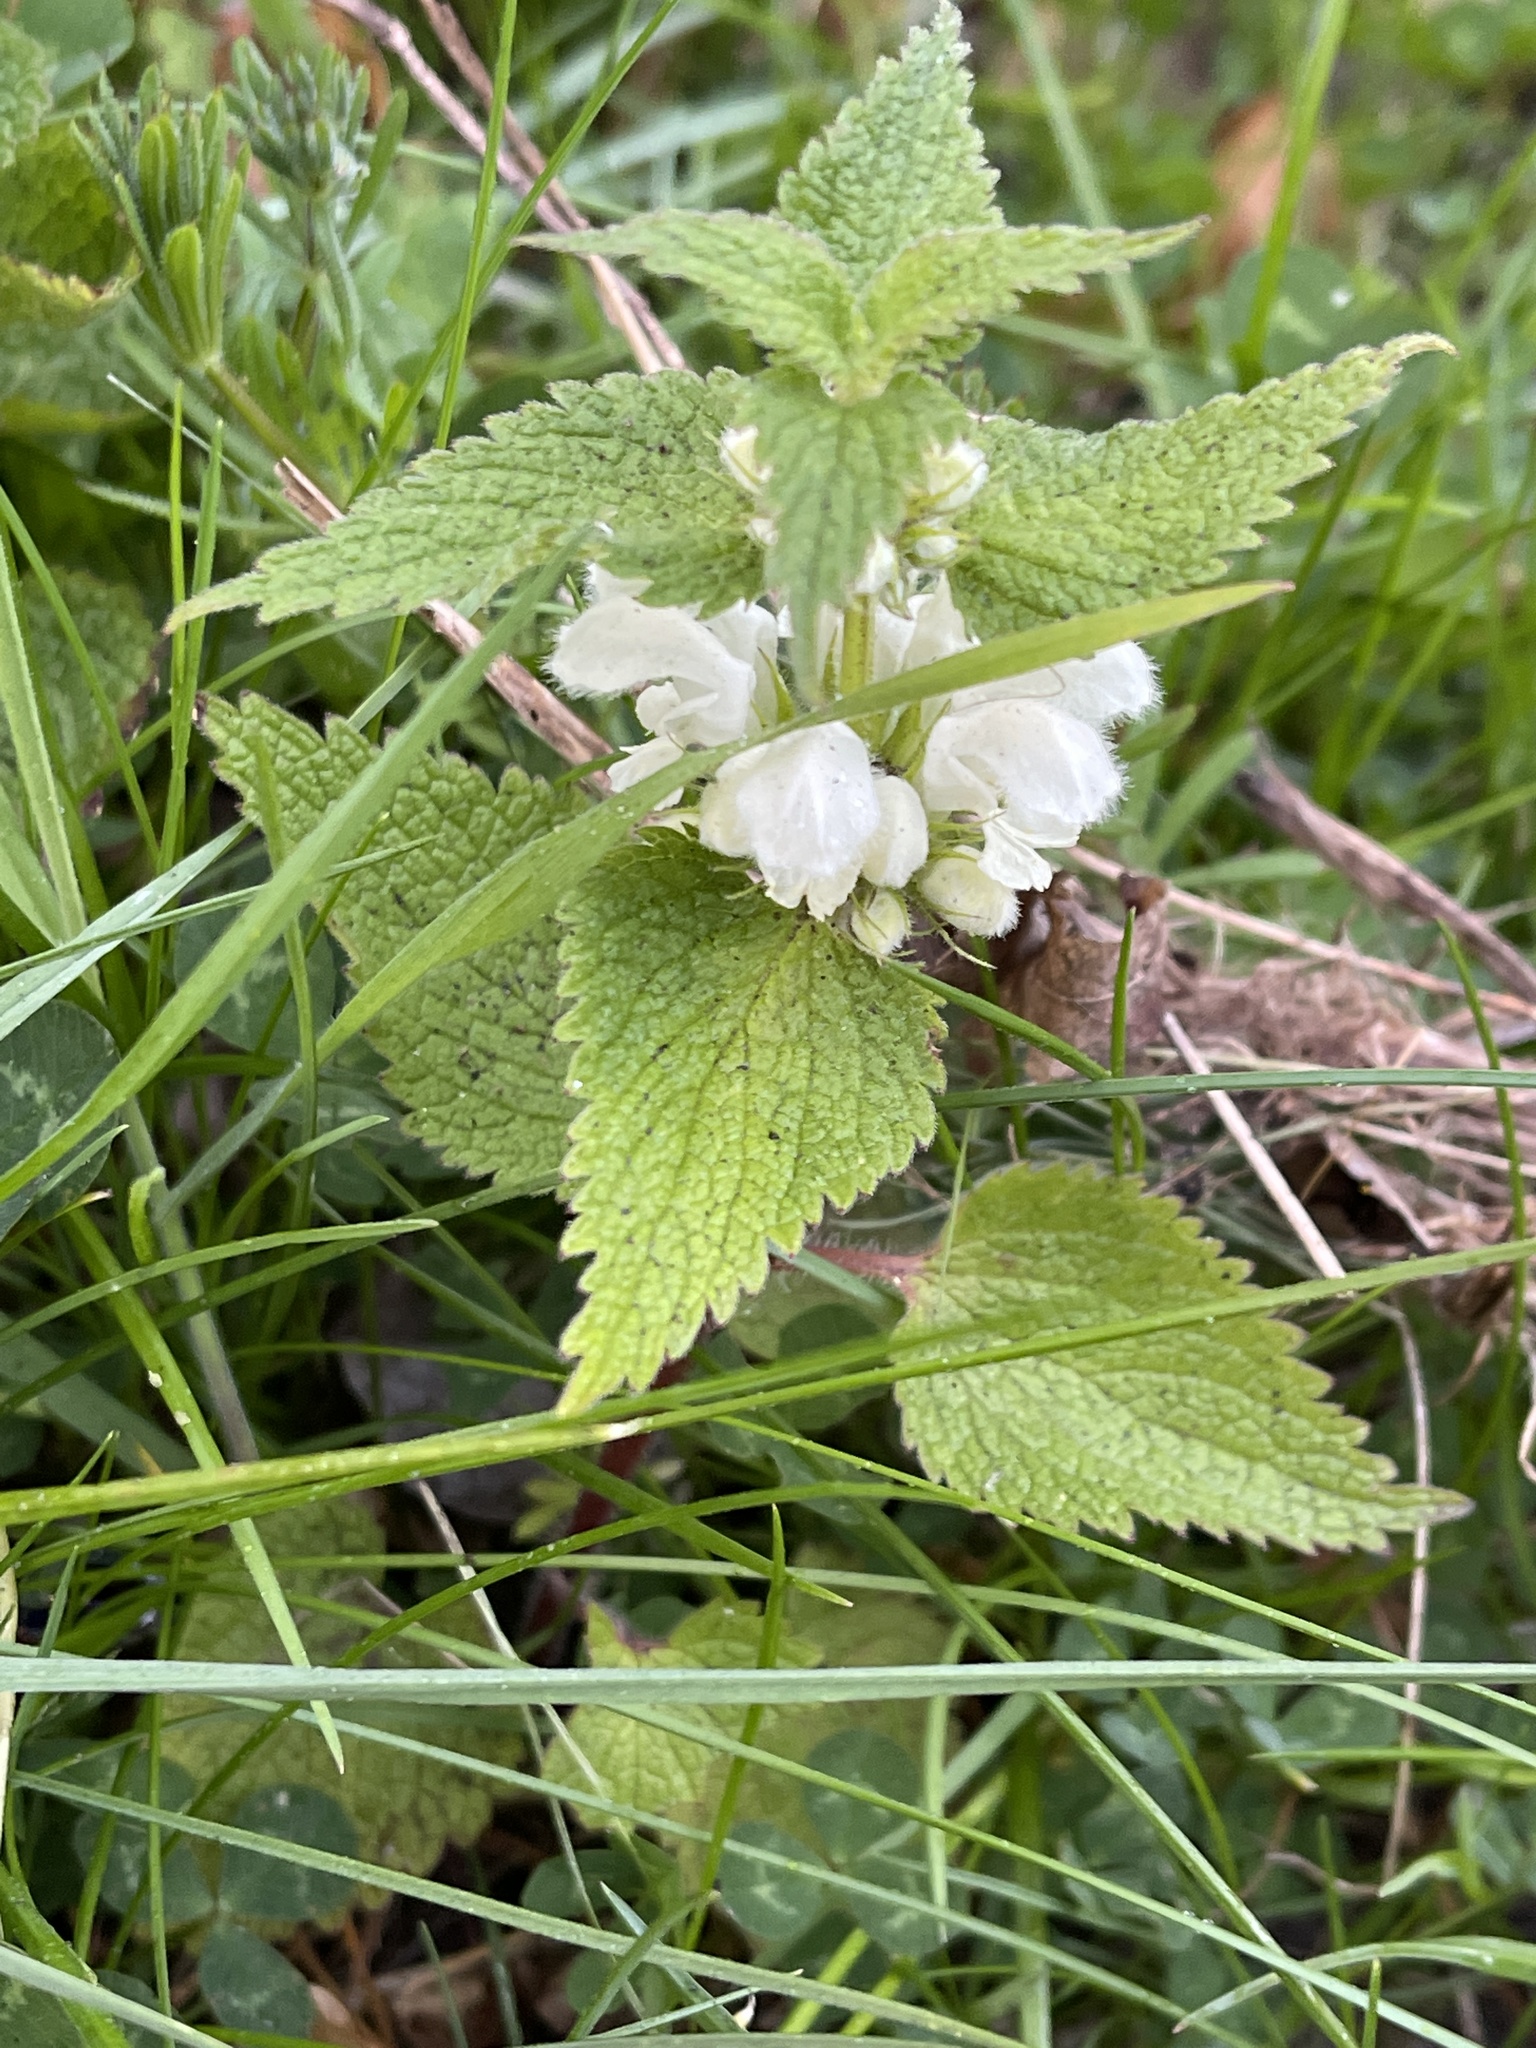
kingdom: Plantae
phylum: Tracheophyta
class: Magnoliopsida
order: Lamiales
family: Lamiaceae
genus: Lamium
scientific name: Lamium album
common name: White dead-nettle
